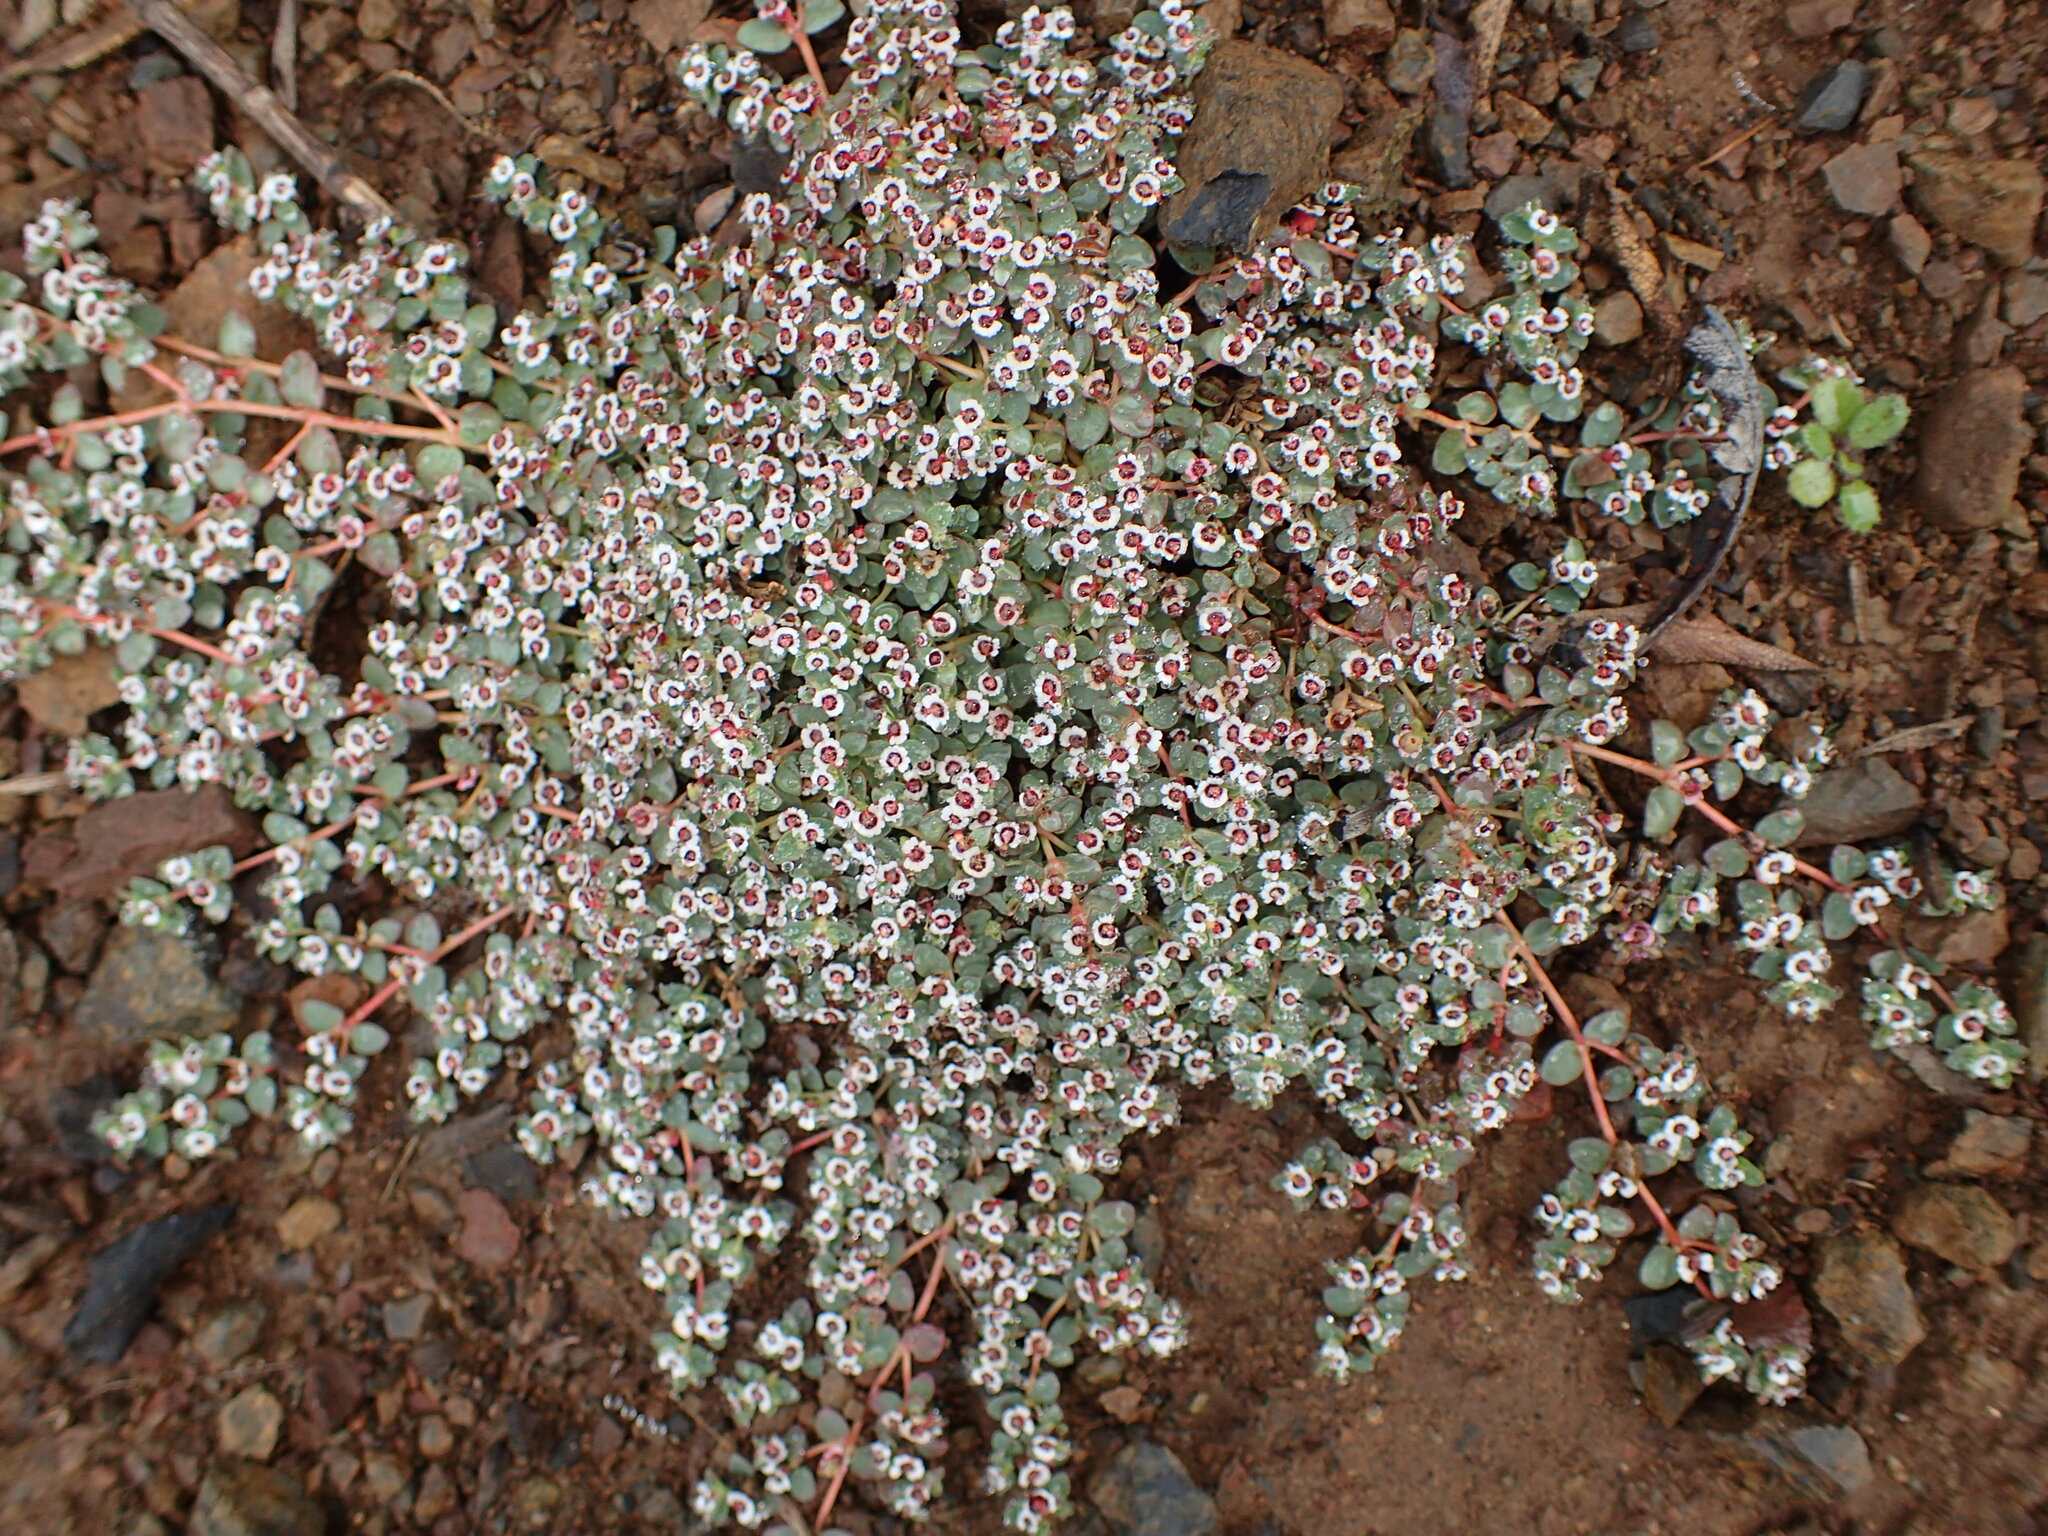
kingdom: Plantae
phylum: Tracheophyta
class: Magnoliopsida
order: Malpighiales
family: Euphorbiaceae
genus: Euphorbia
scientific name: Euphorbia polycarpa
